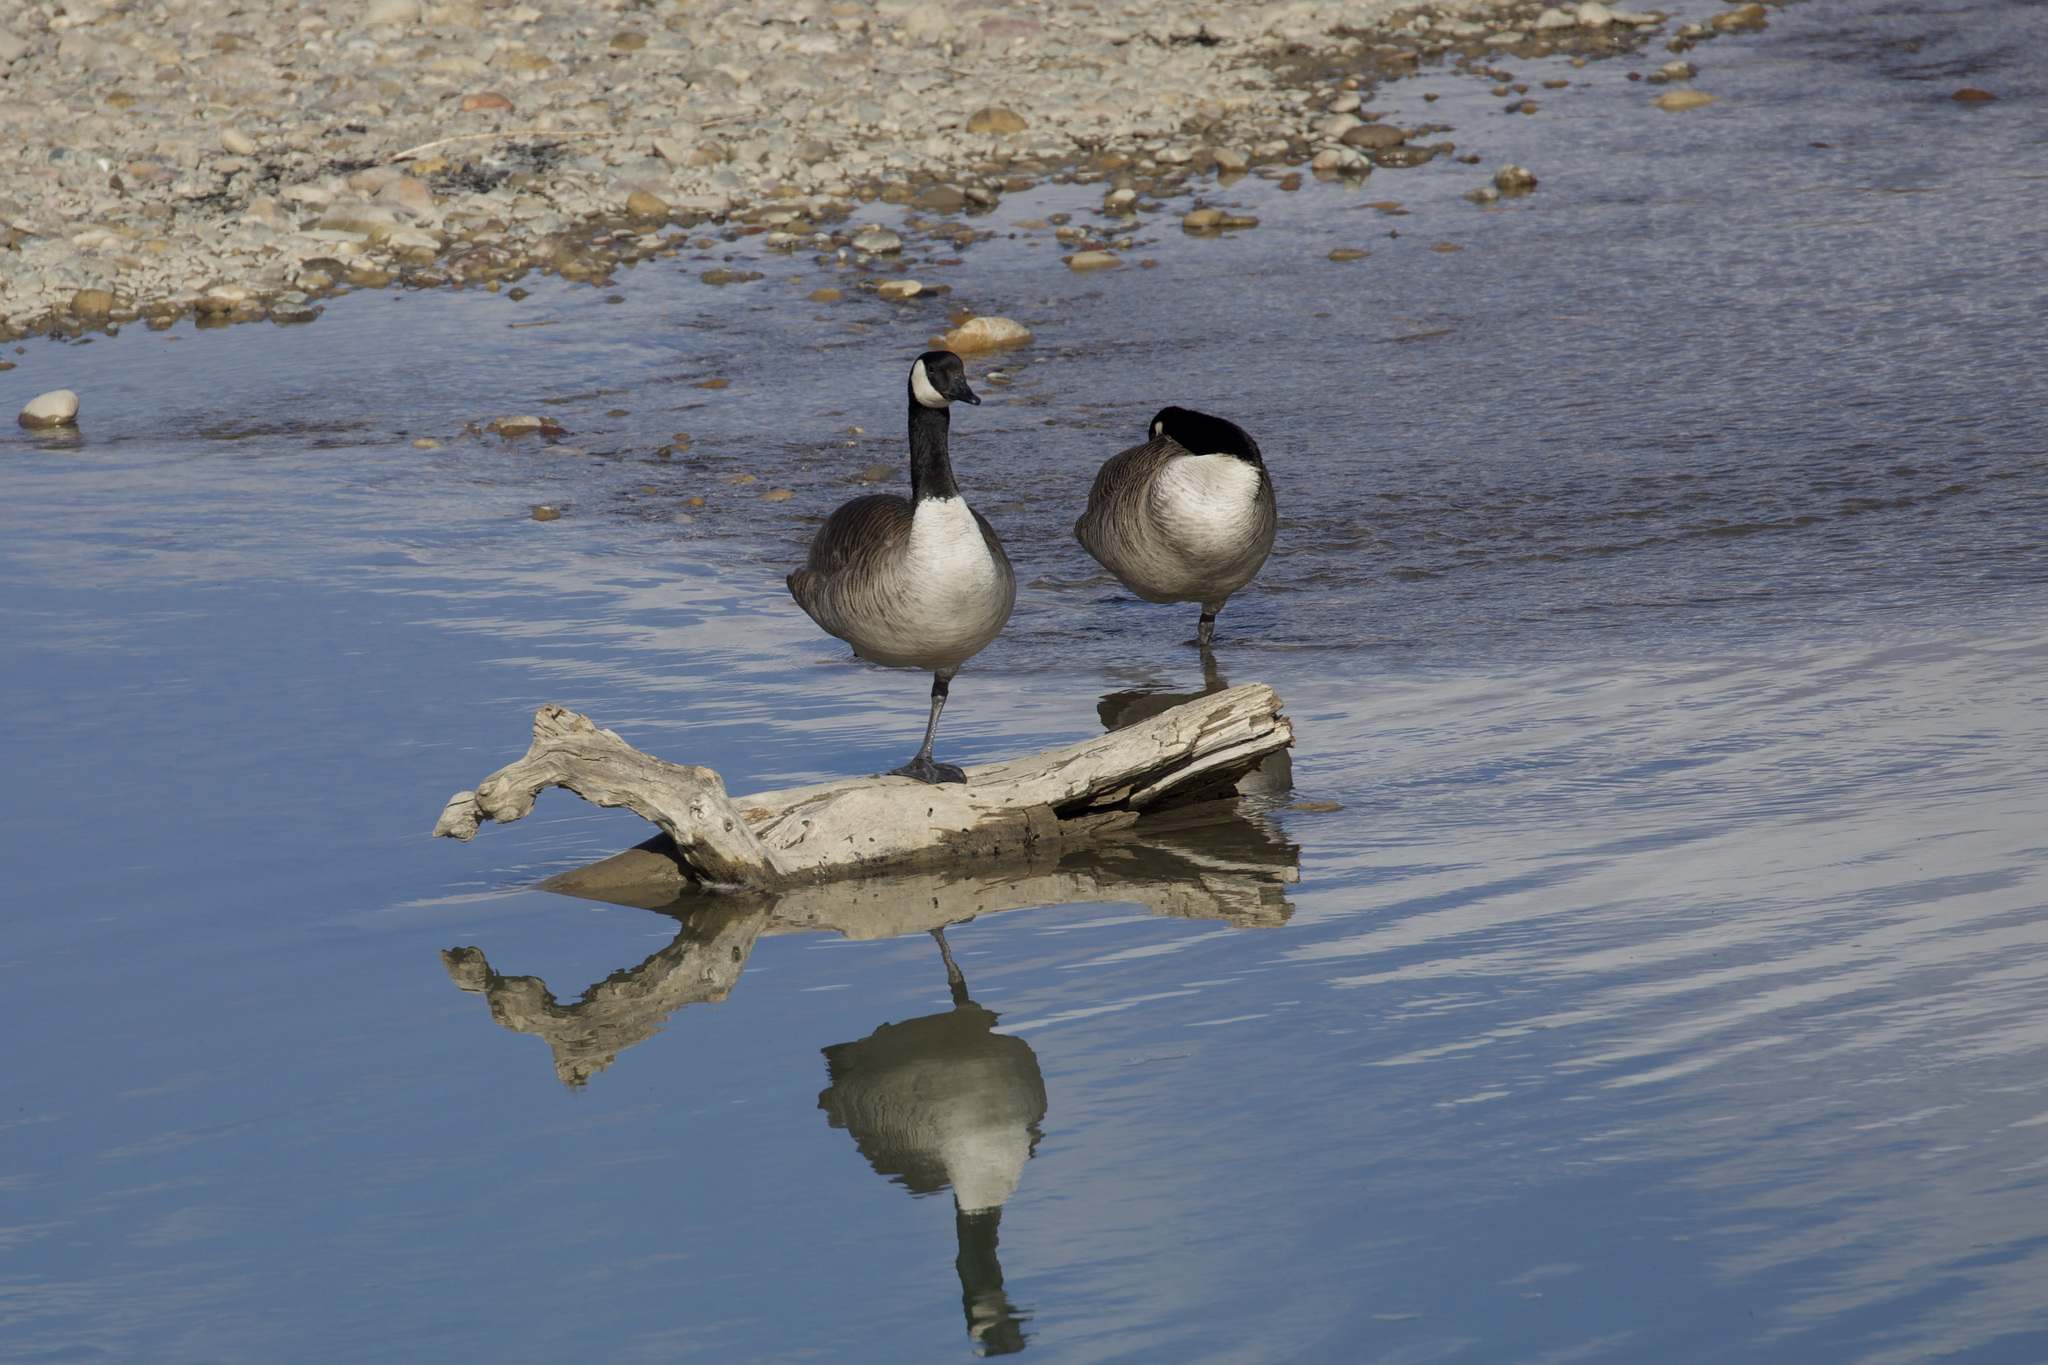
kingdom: Animalia
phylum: Chordata
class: Aves
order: Anseriformes
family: Anatidae
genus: Branta
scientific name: Branta canadensis
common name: Canada goose
